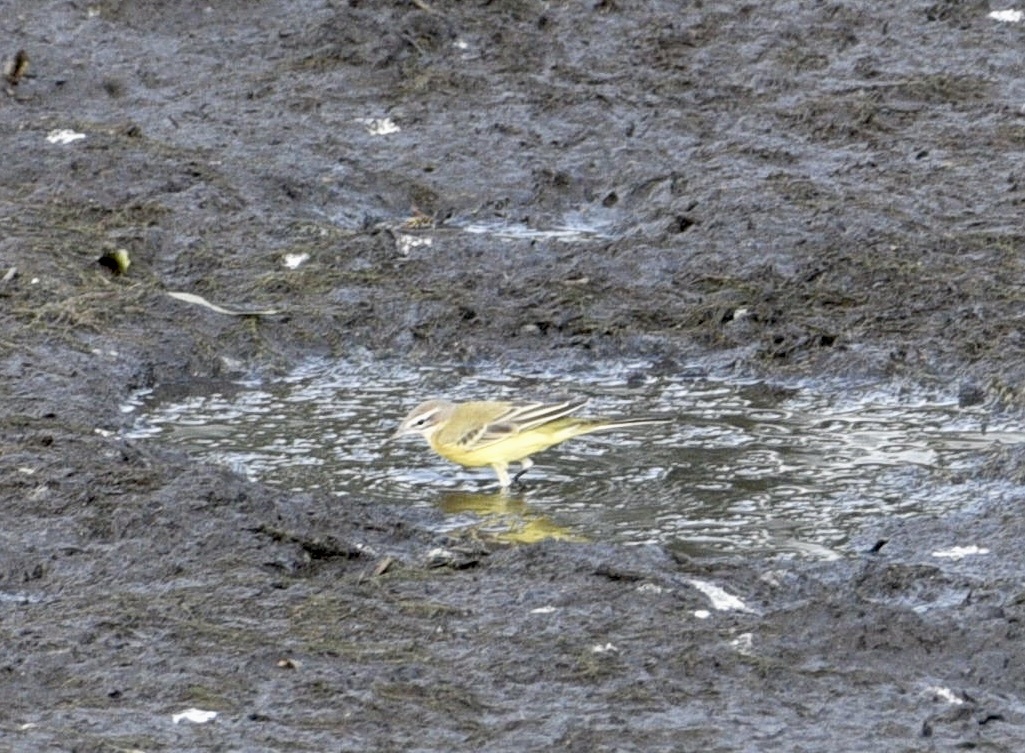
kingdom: Animalia
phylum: Chordata
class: Aves
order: Passeriformes
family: Motacillidae
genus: Motacilla
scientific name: Motacilla flava
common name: Western yellow wagtail
